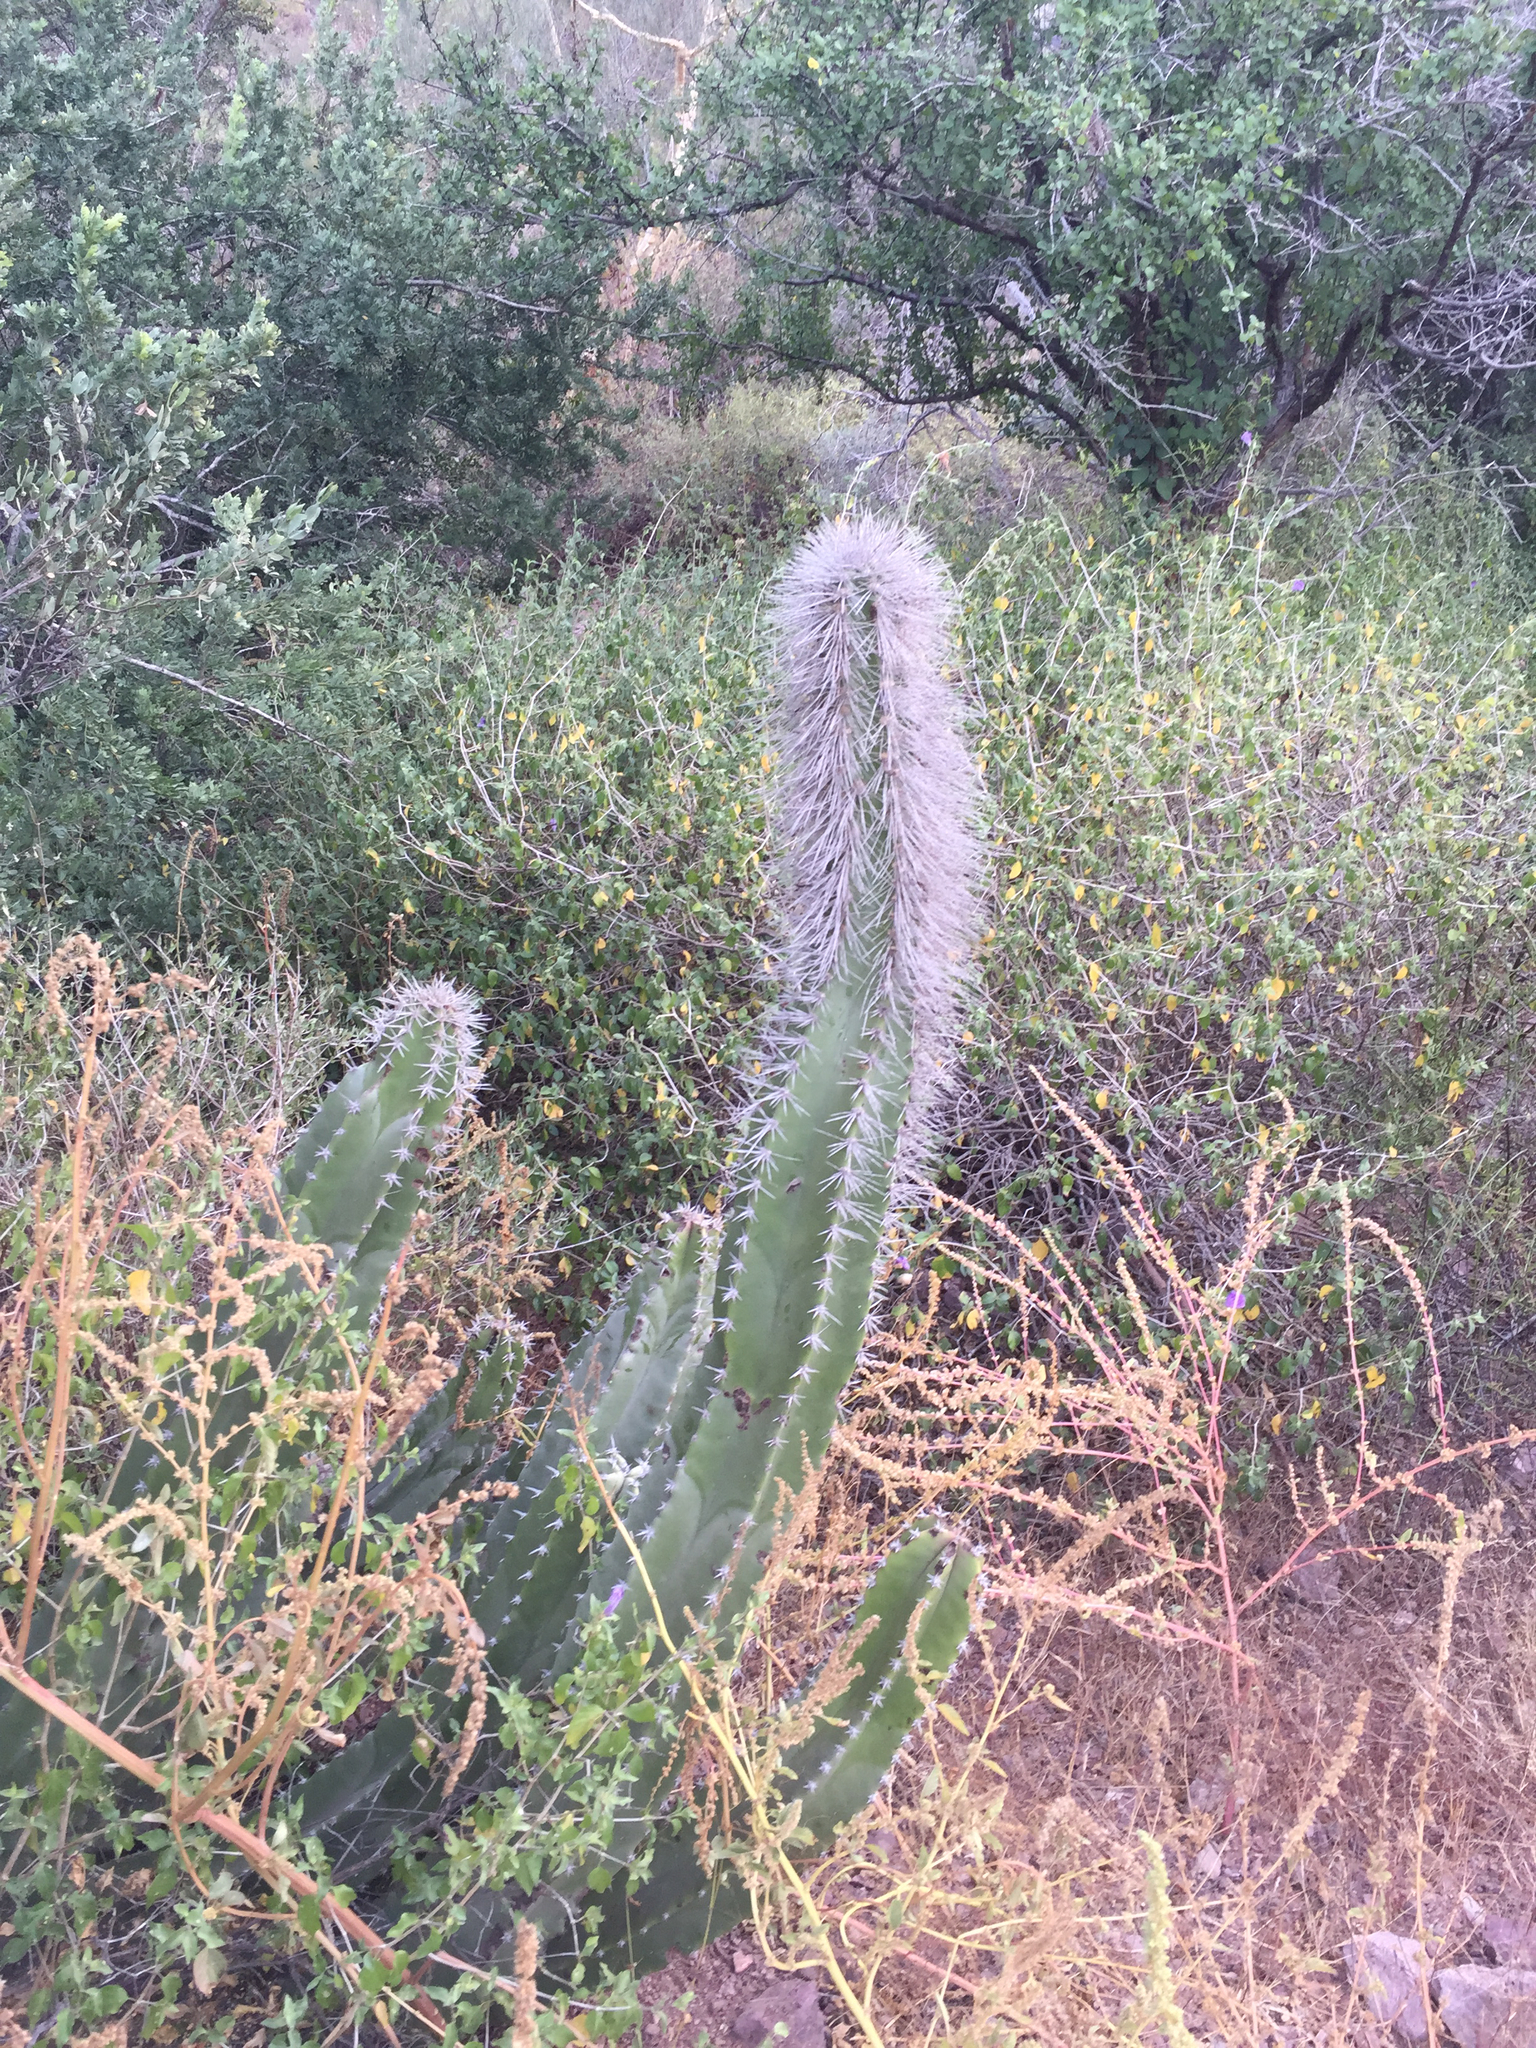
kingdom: Plantae
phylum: Tracheophyta
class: Magnoliopsida
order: Caryophyllales
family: Cactaceae
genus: Pachycereus
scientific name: Pachycereus schottii
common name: Senita cactus
